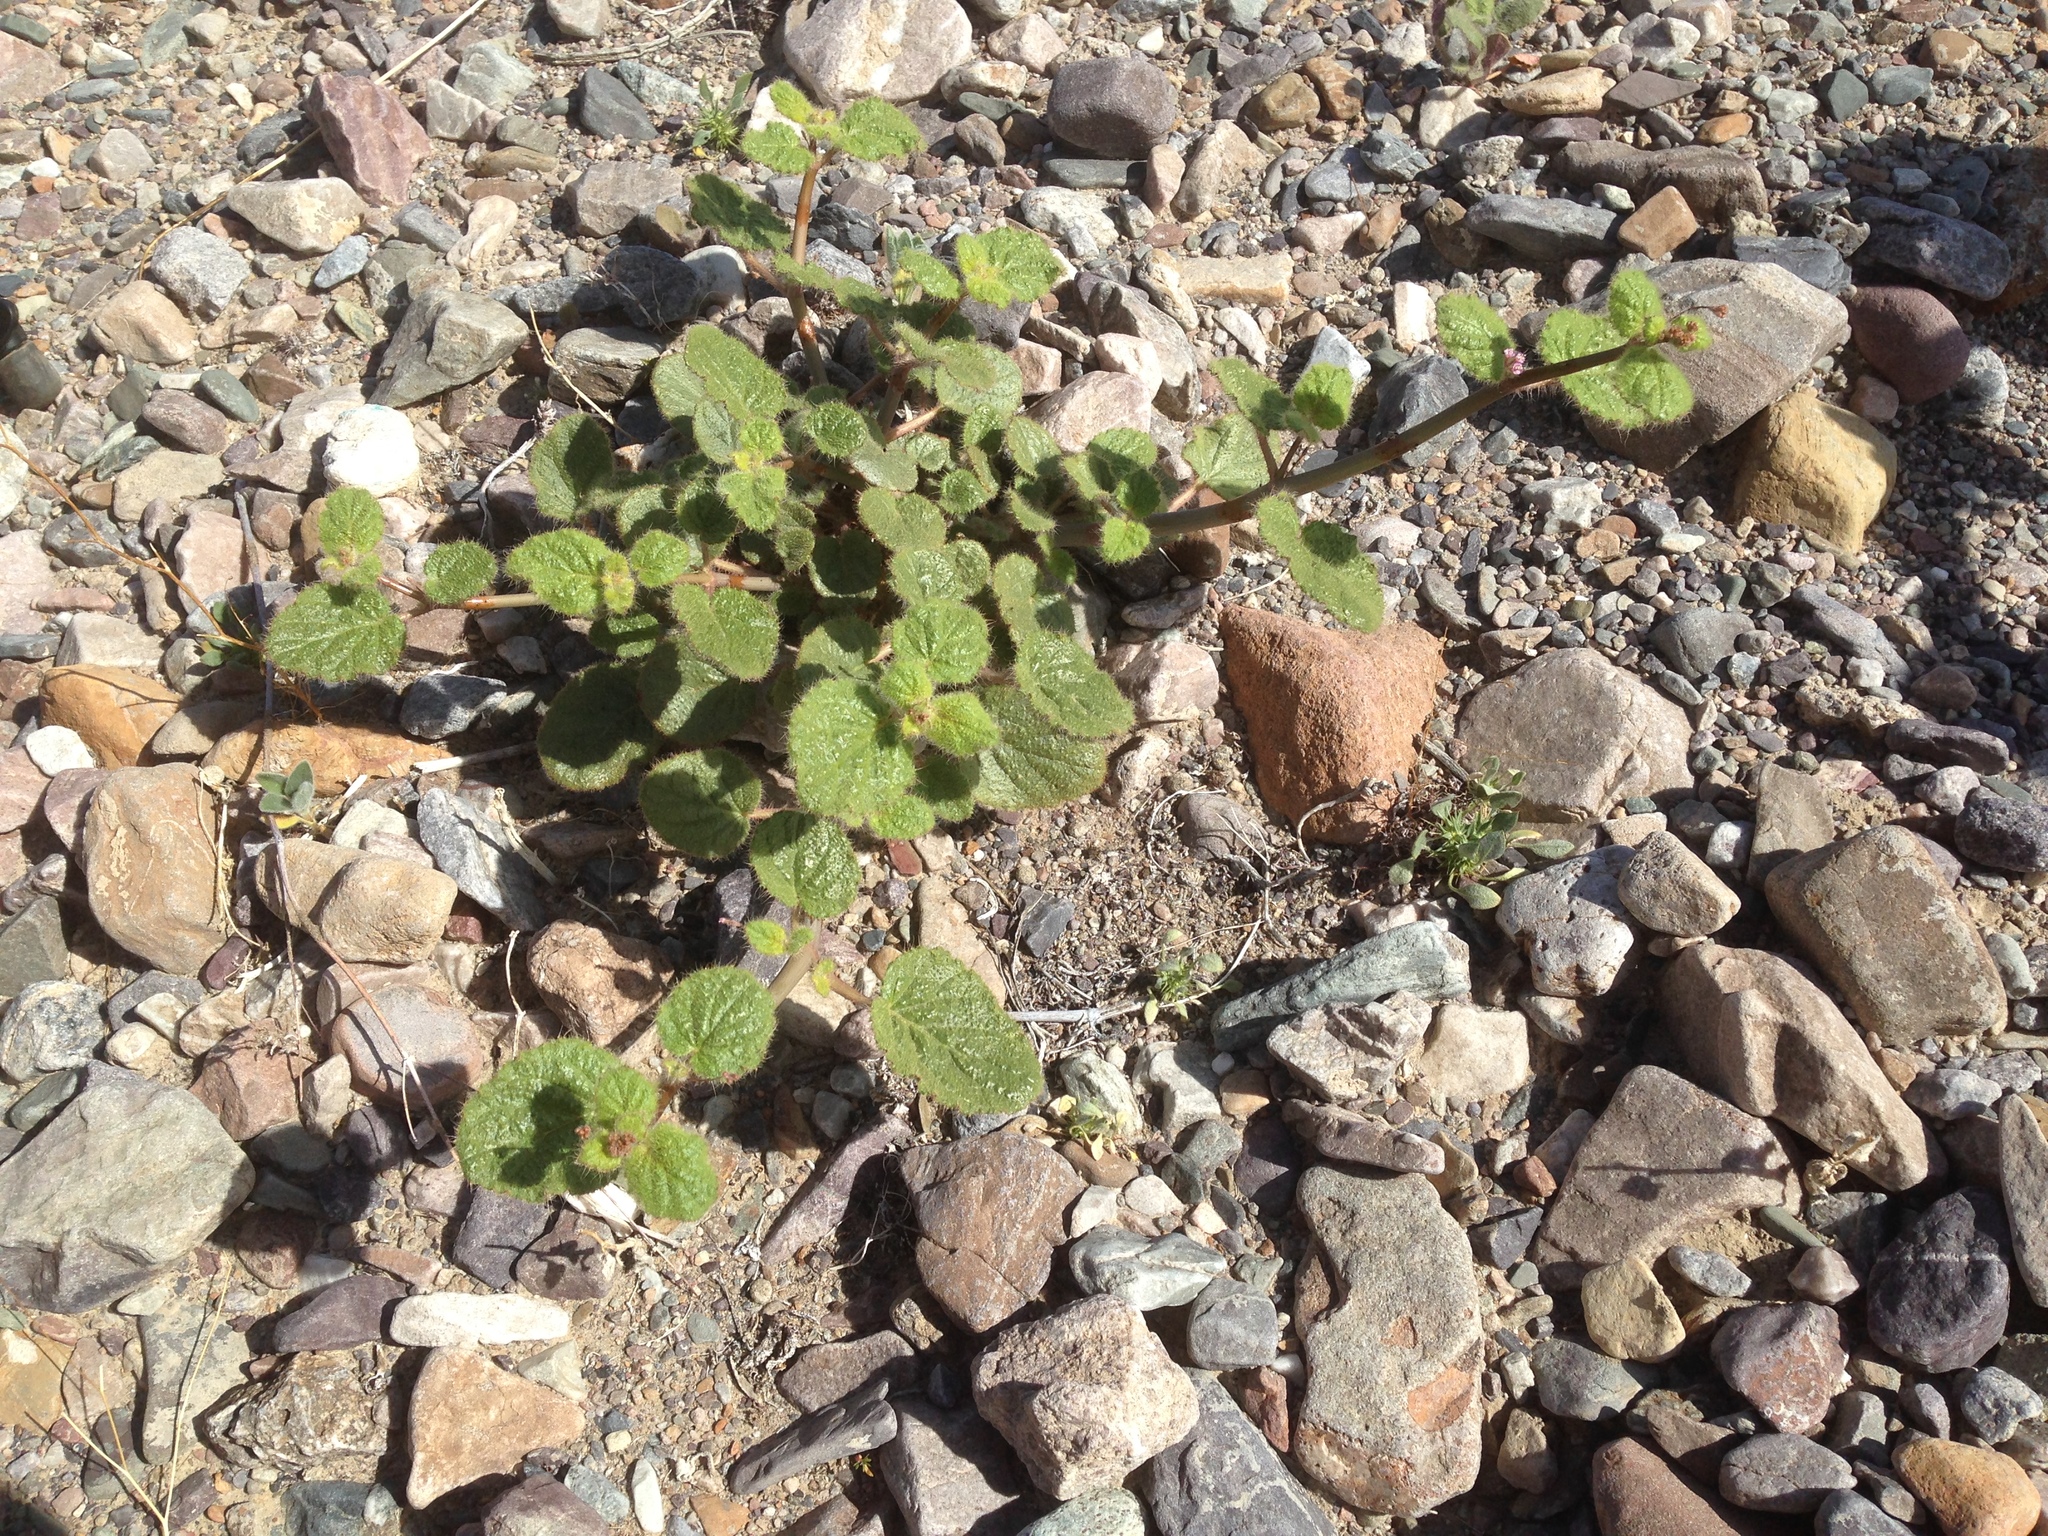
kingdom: Plantae
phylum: Tracheophyta
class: Magnoliopsida
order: Caryophyllales
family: Nyctaginaceae
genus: Anulocaulis
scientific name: Anulocaulis annulatus
